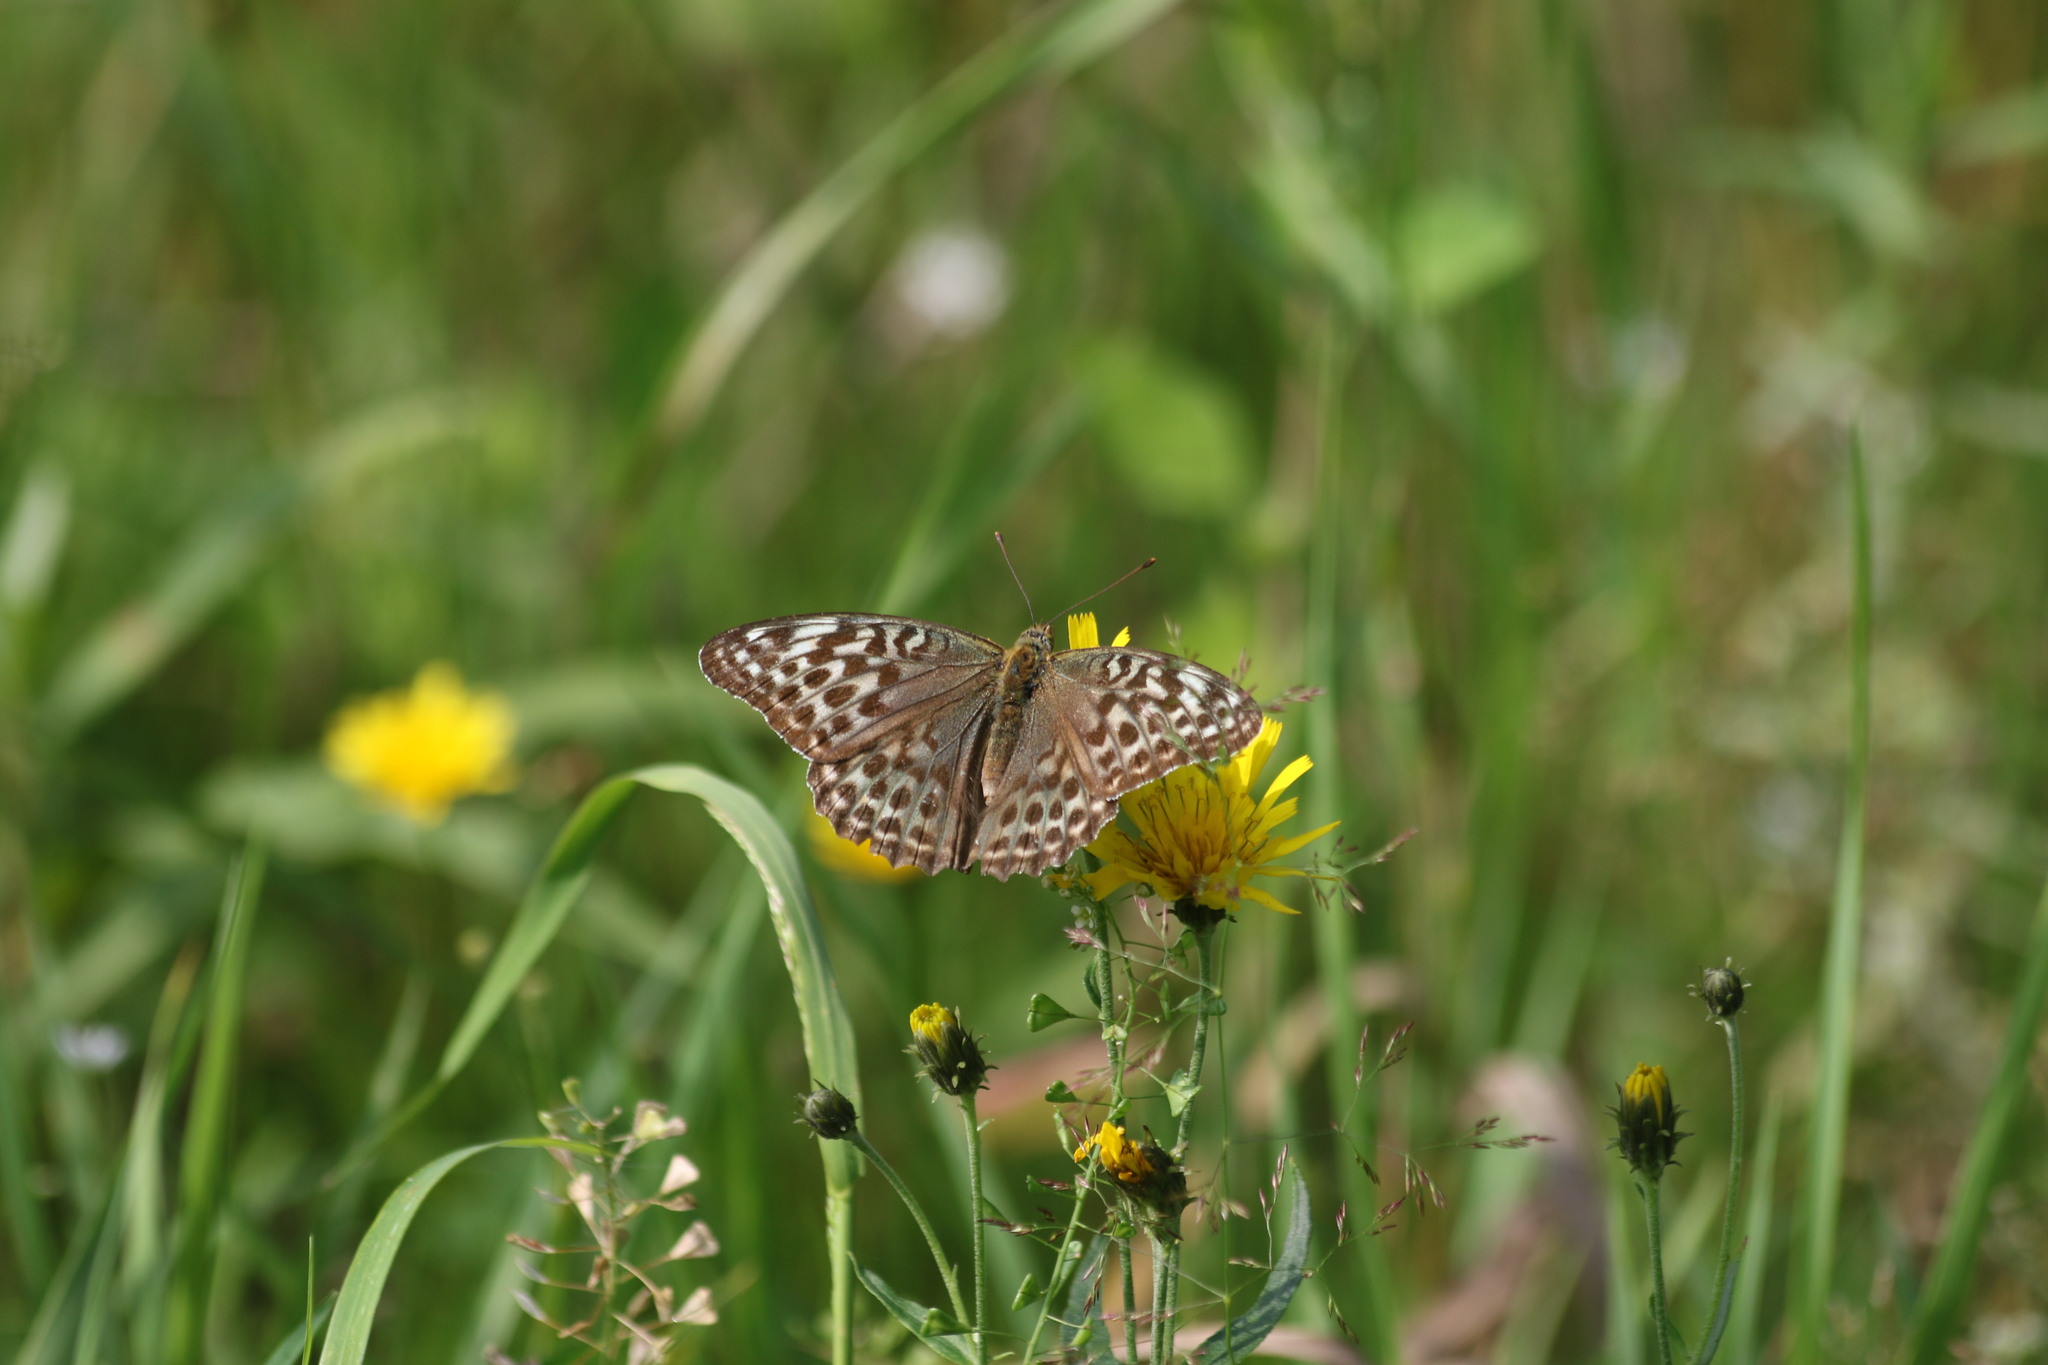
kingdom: Animalia
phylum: Arthropoda
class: Insecta
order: Lepidoptera
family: Nymphalidae
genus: Argynnis
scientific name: Argynnis paphia
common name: Silver-washed fritillary
